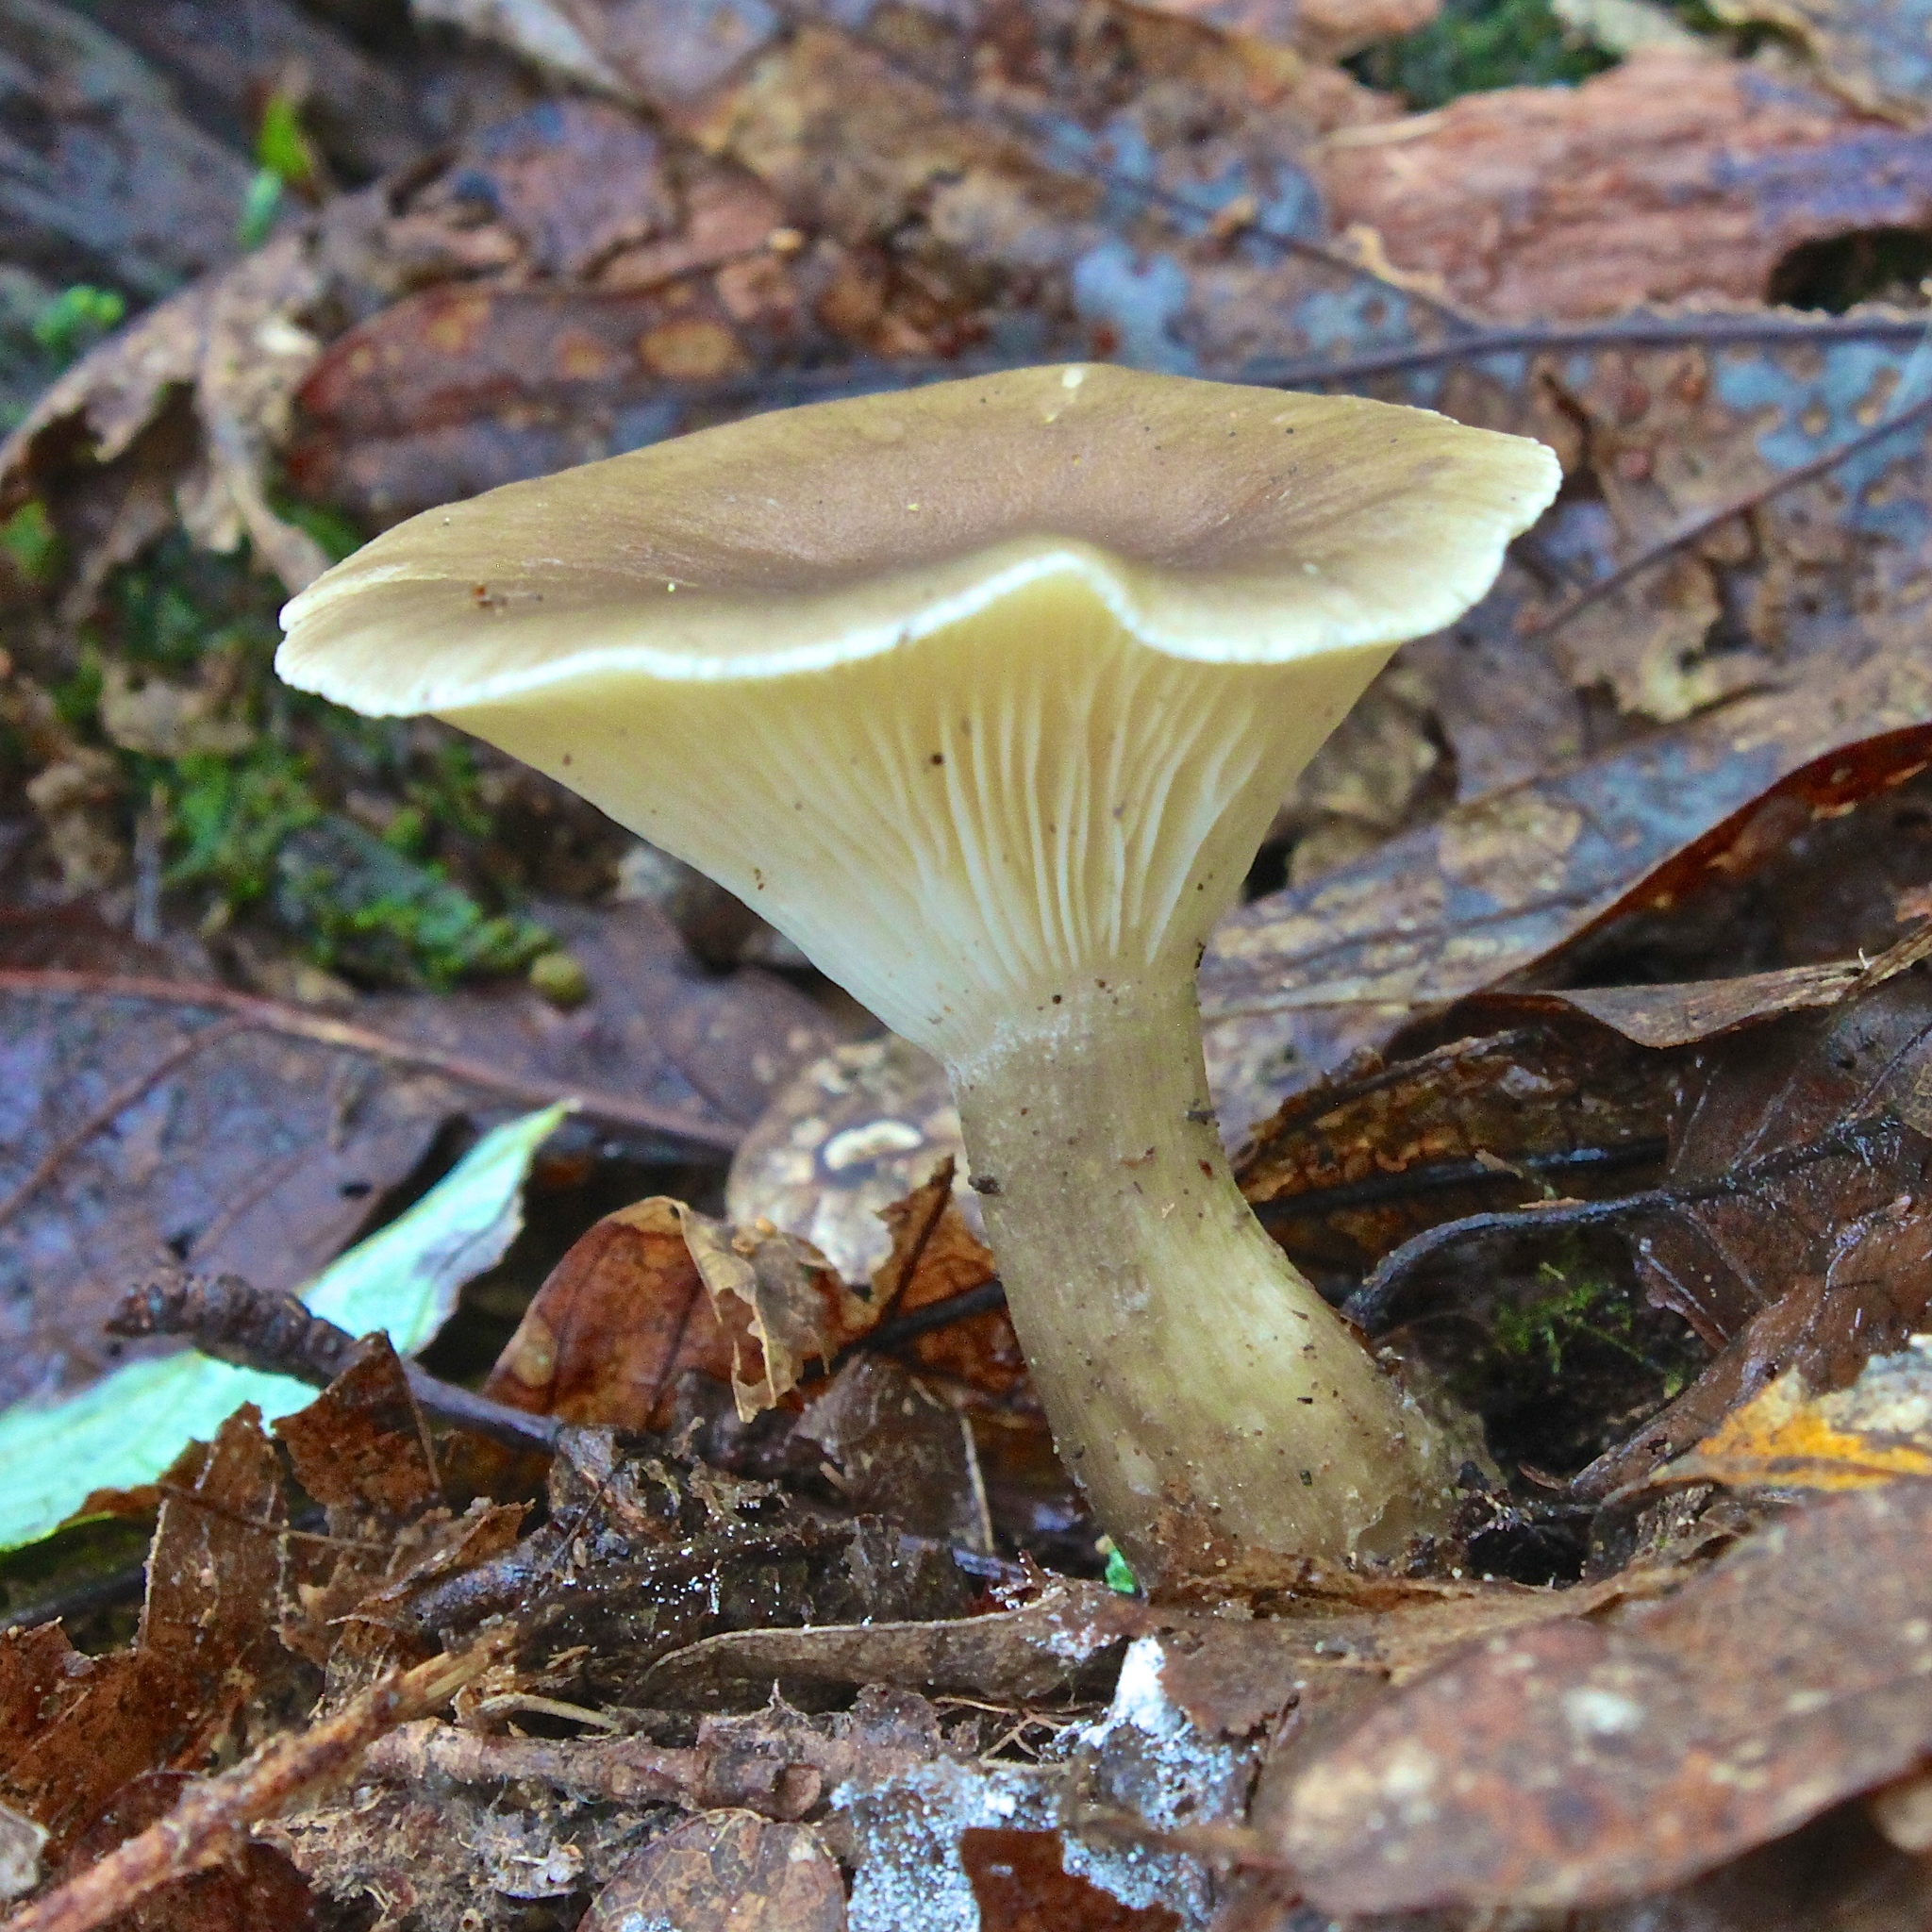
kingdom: Fungi
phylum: Basidiomycota
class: Agaricomycetes
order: Agaricales
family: Hygrophoraceae
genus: Ampulloclitocybe
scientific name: Ampulloclitocybe clavipes
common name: Club foot
